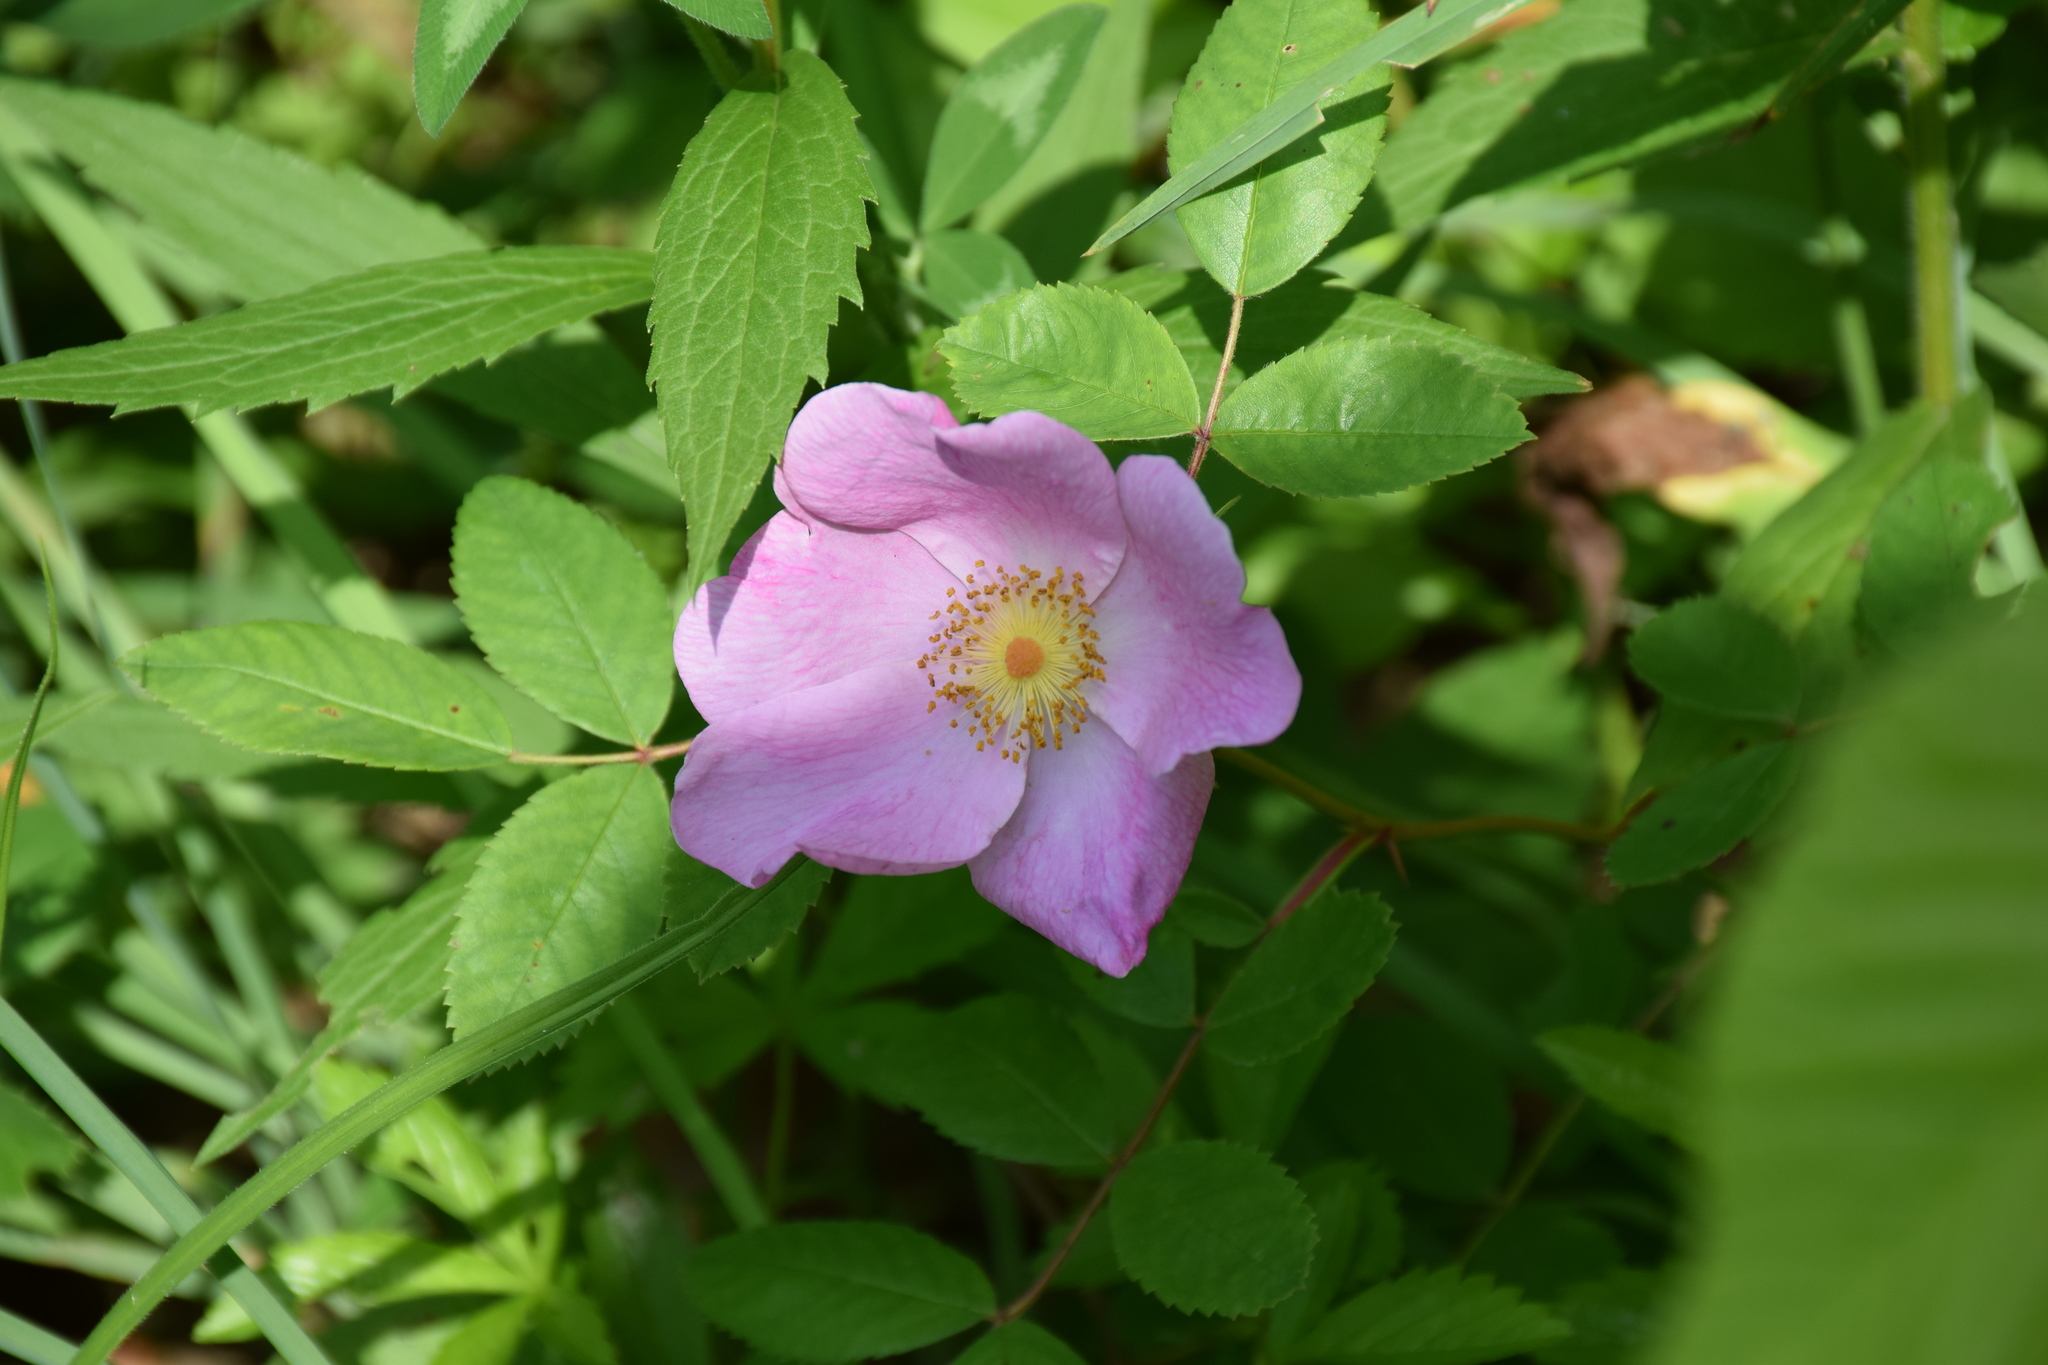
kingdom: Plantae
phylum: Tracheophyta
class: Magnoliopsida
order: Rosales
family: Rosaceae
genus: Rosa
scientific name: Rosa carolina
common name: Pasture rose
